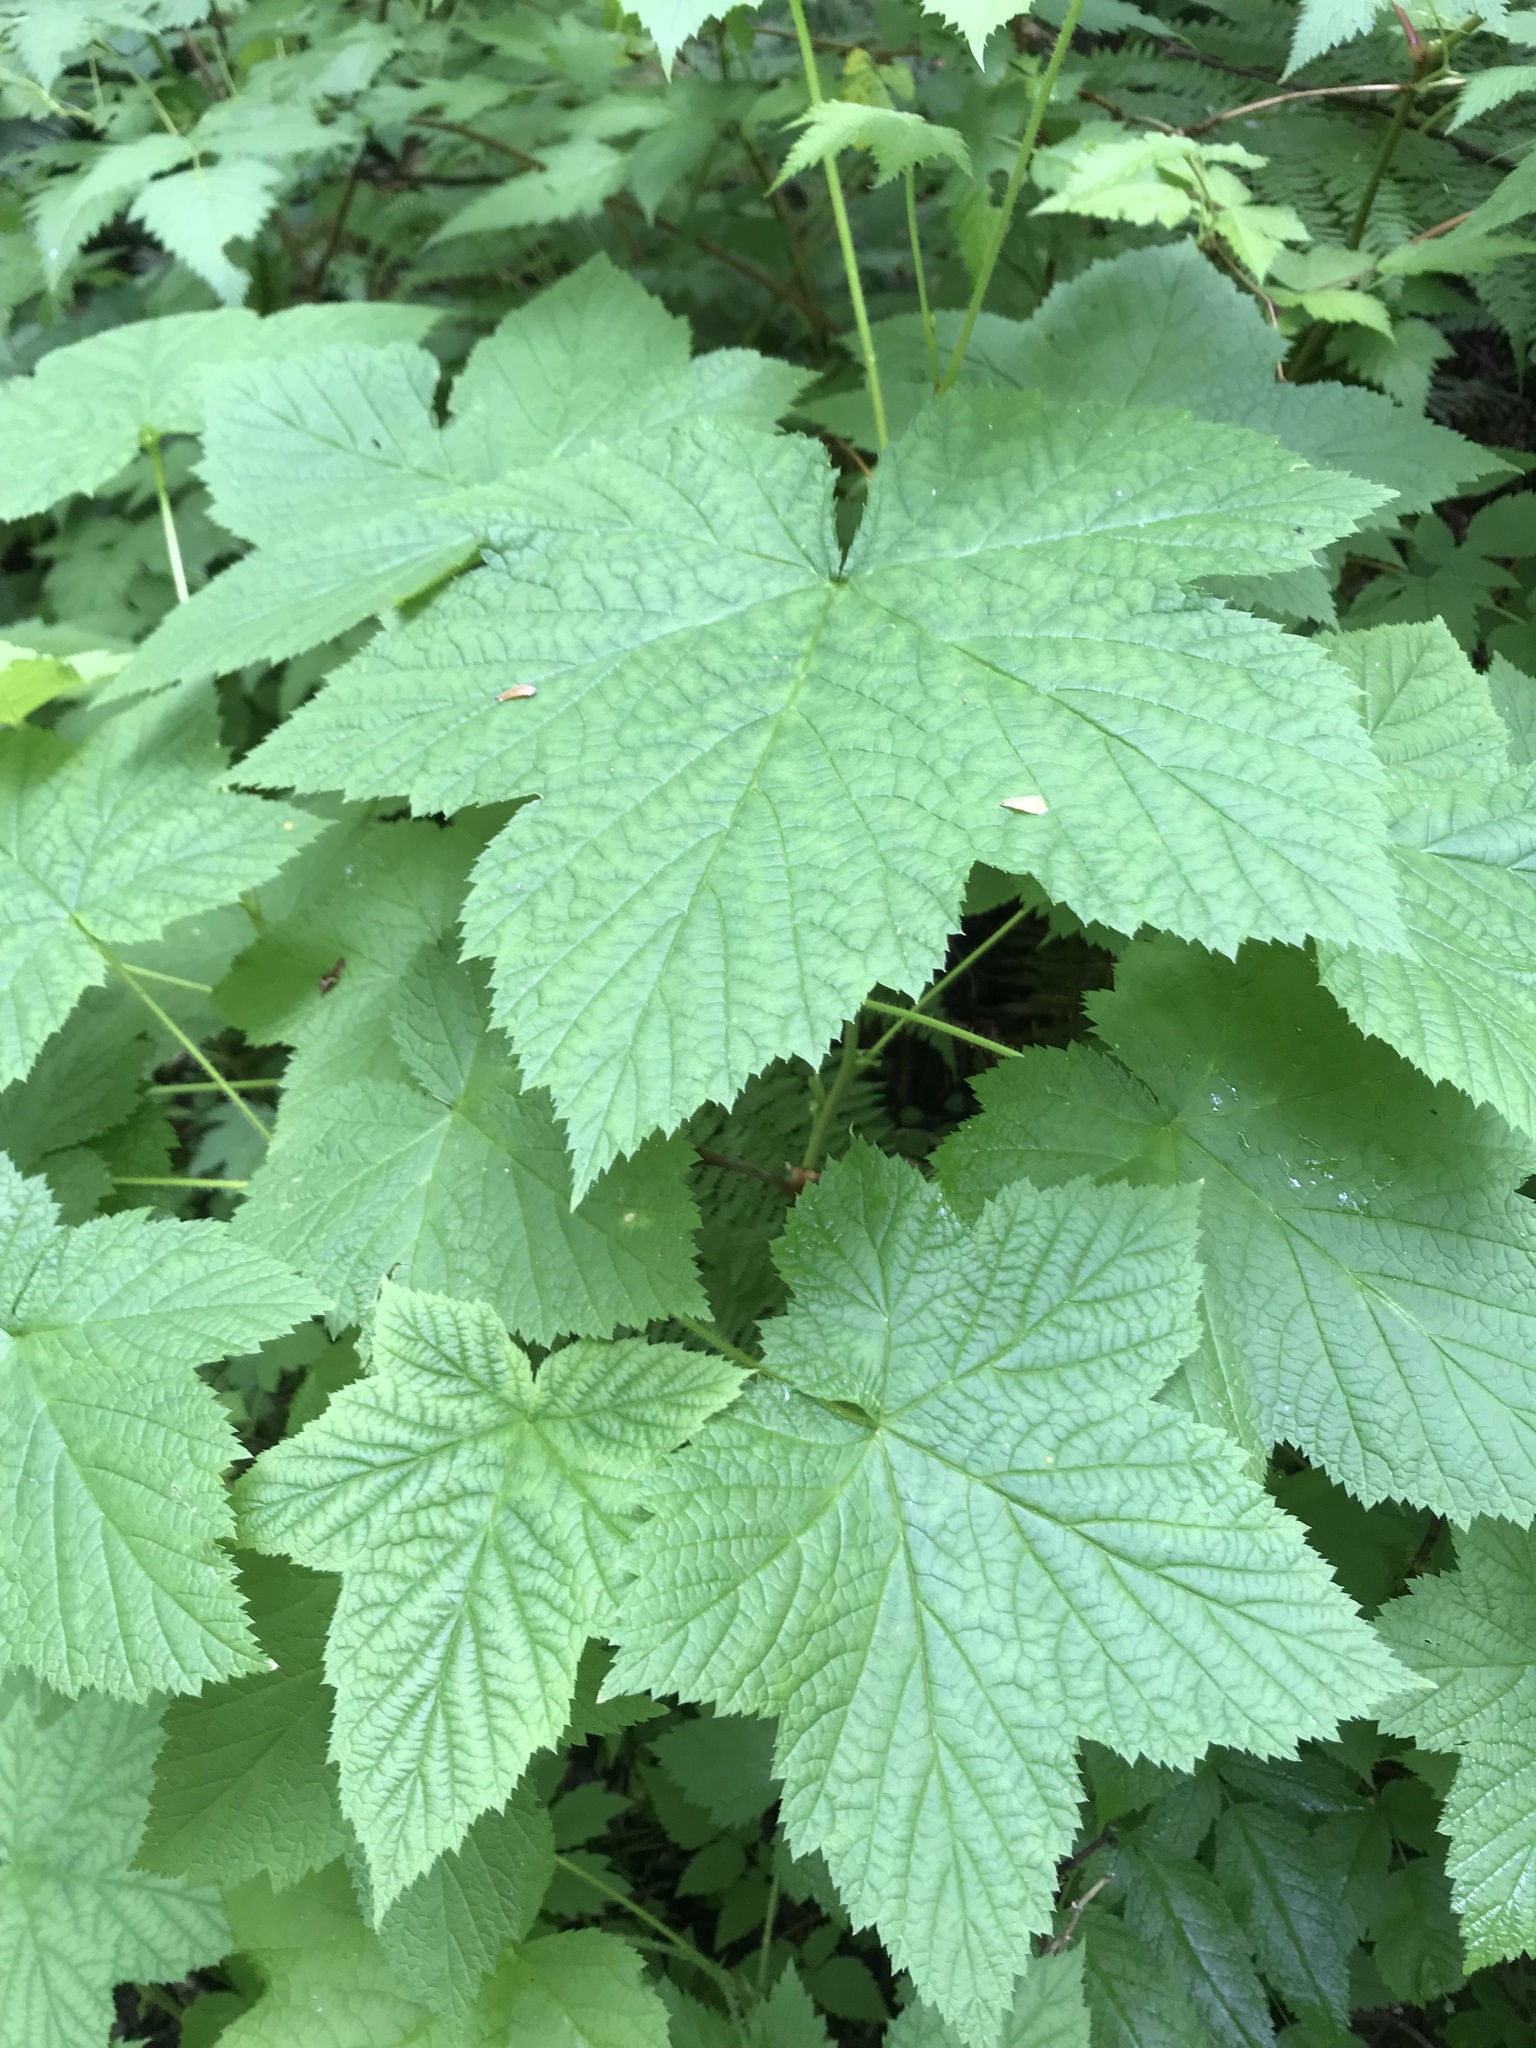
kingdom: Plantae
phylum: Tracheophyta
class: Magnoliopsida
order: Rosales
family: Rosaceae
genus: Rubus
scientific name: Rubus parviflorus
